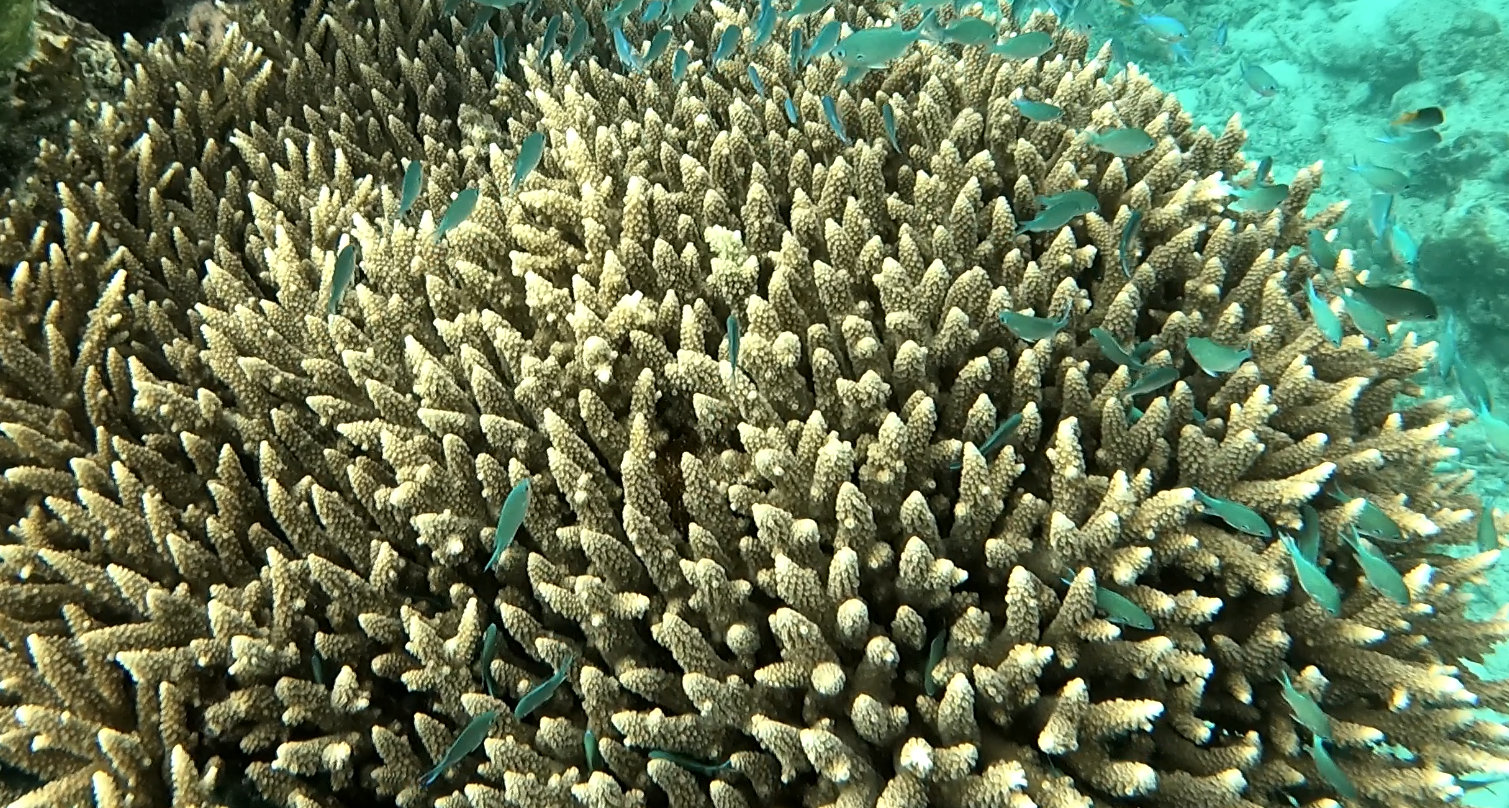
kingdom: Animalia
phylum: Chordata
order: Perciformes
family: Pomacentridae
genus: Chromis
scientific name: Chromis atripectoralis
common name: Black-axil chromis
